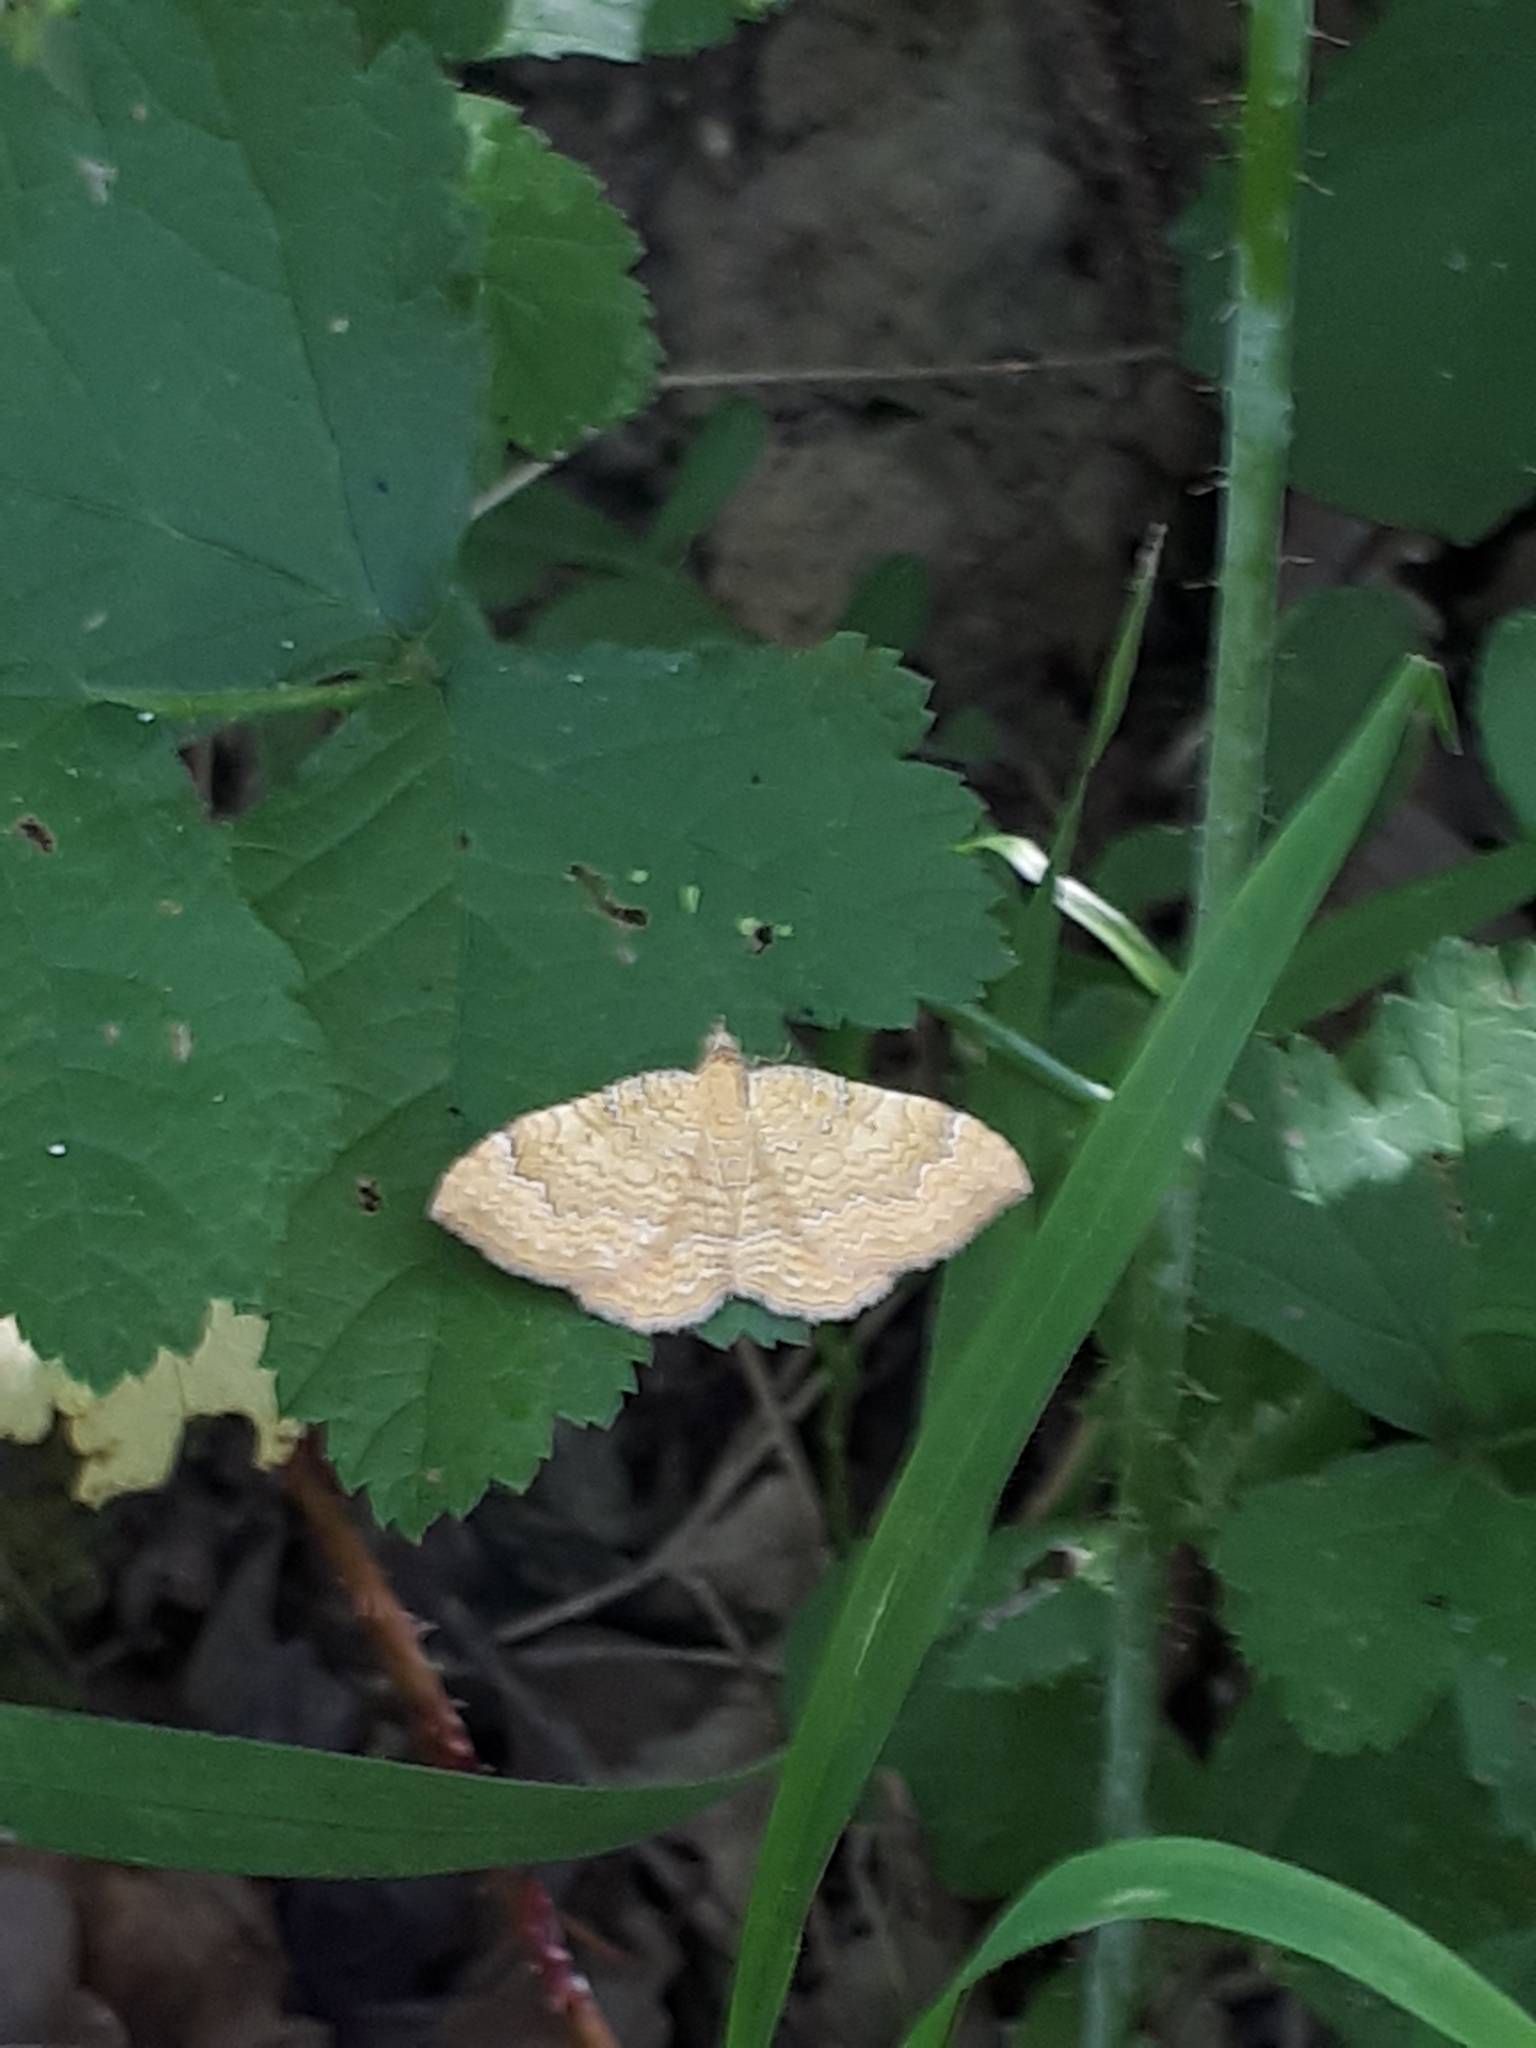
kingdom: Animalia
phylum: Arthropoda
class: Insecta
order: Lepidoptera
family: Geometridae
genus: Camptogramma
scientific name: Camptogramma bilineata
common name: Yellow shell
